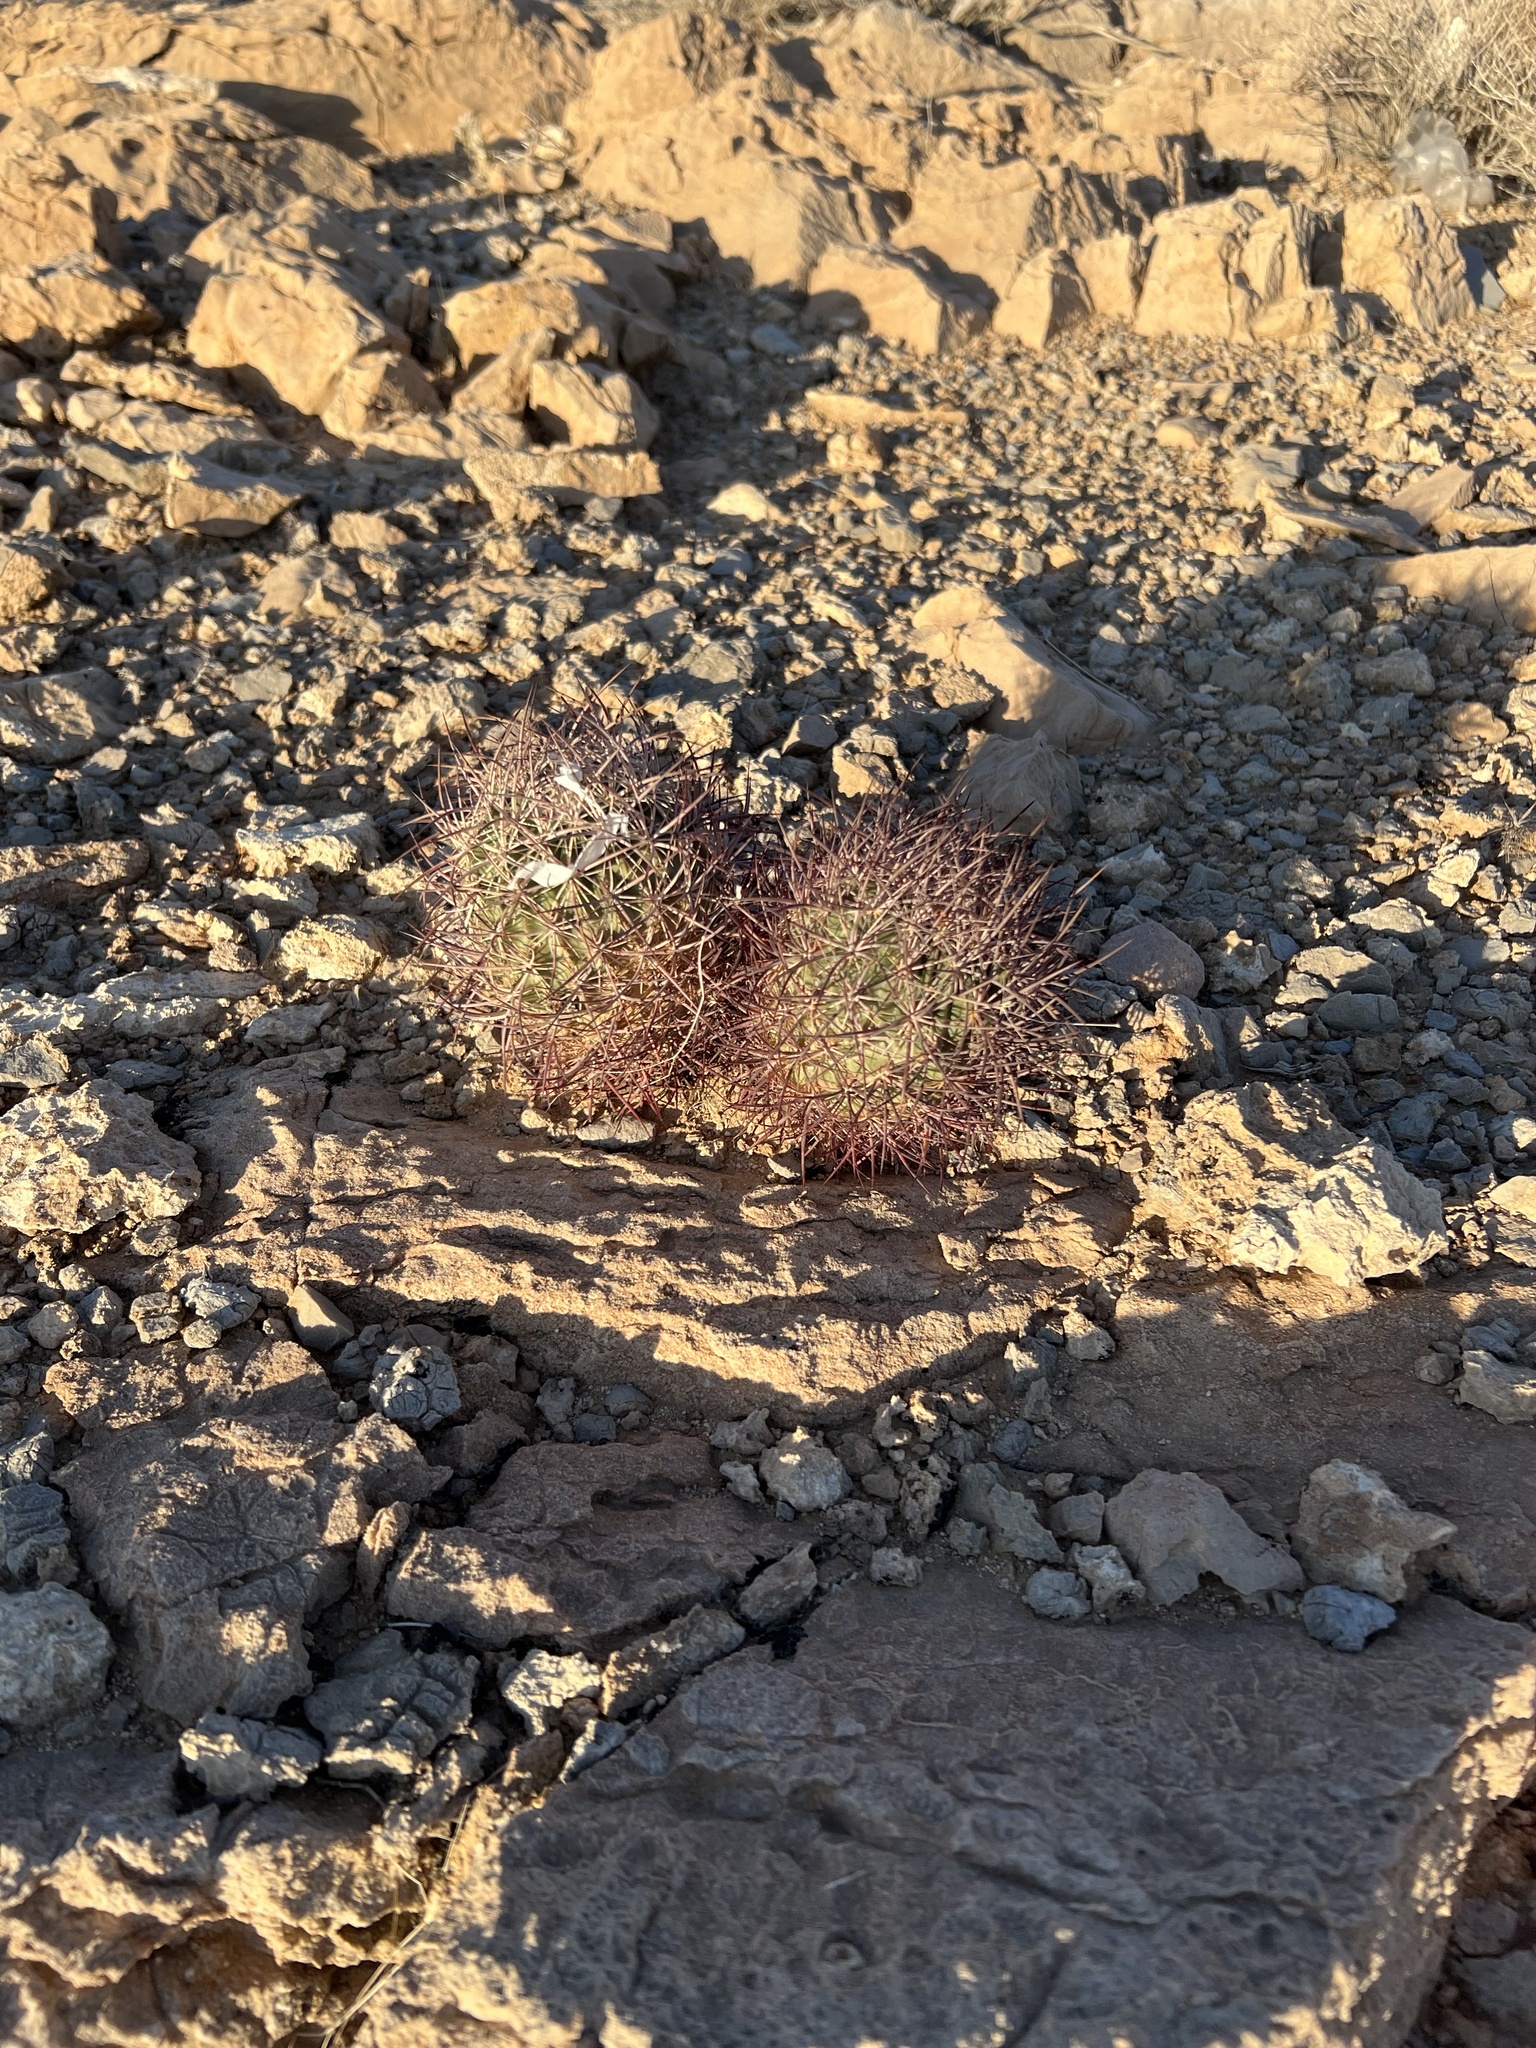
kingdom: Plantae
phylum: Tracheophyta
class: Magnoliopsida
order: Caryophyllales
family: Cactaceae
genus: Sclerocactus
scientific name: Sclerocactus johnsonii
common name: Eight-spine fishhook cactus
